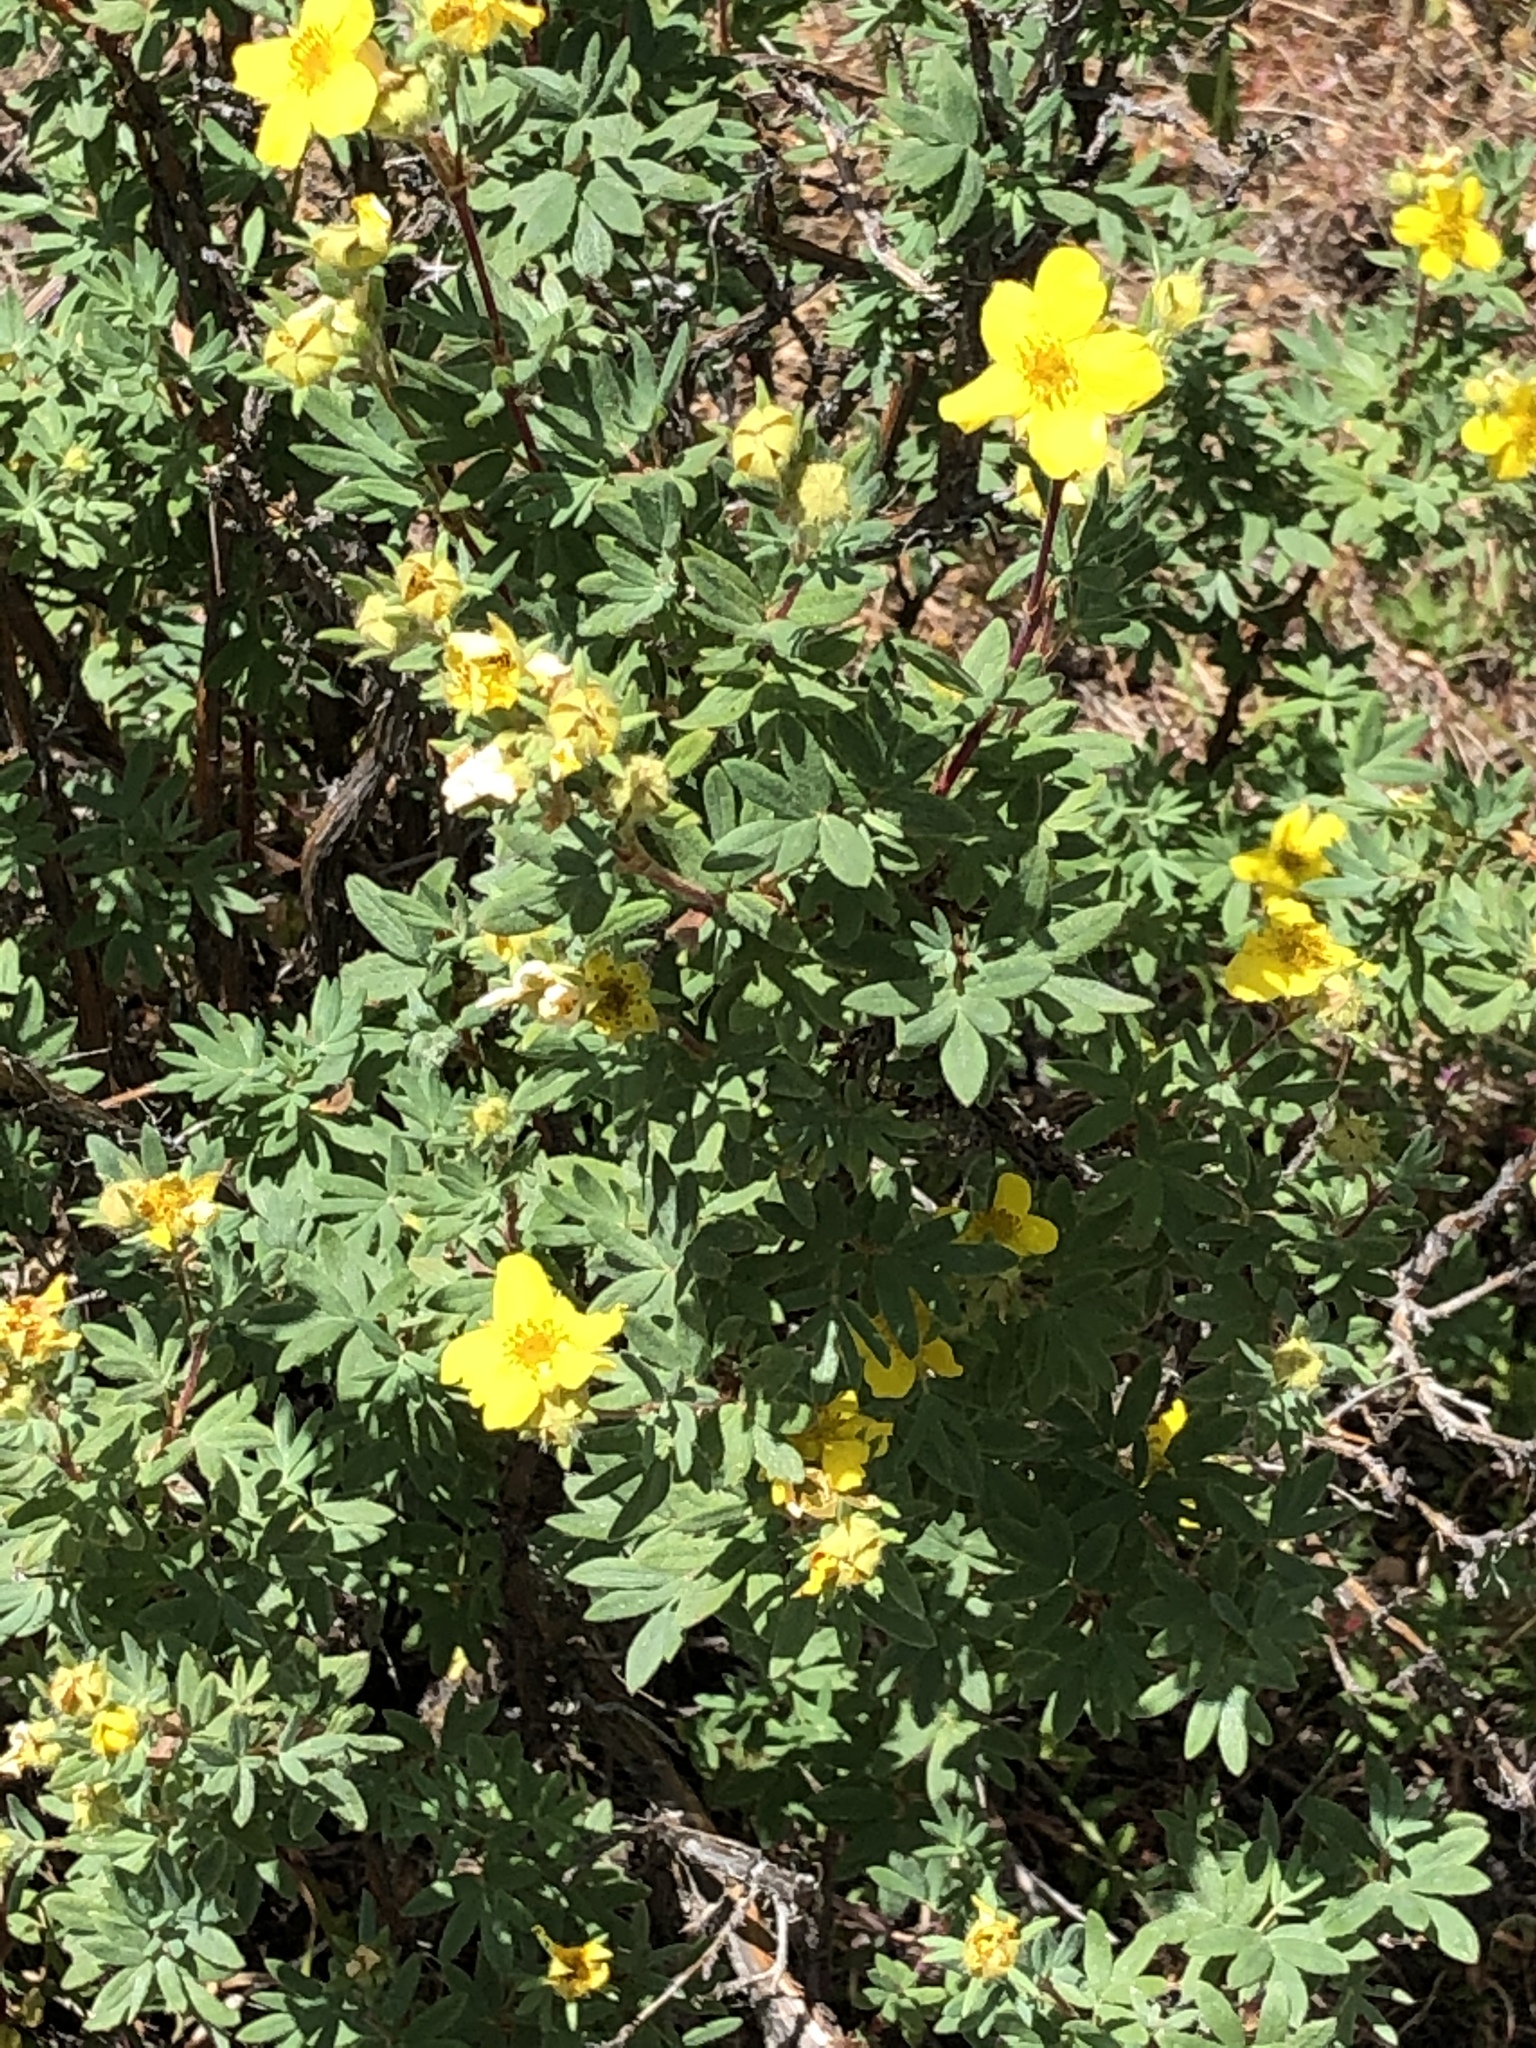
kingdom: Plantae
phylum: Tracheophyta
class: Magnoliopsida
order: Rosales
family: Rosaceae
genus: Dasiphora
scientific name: Dasiphora fruticosa
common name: Shrubby cinquefoil
